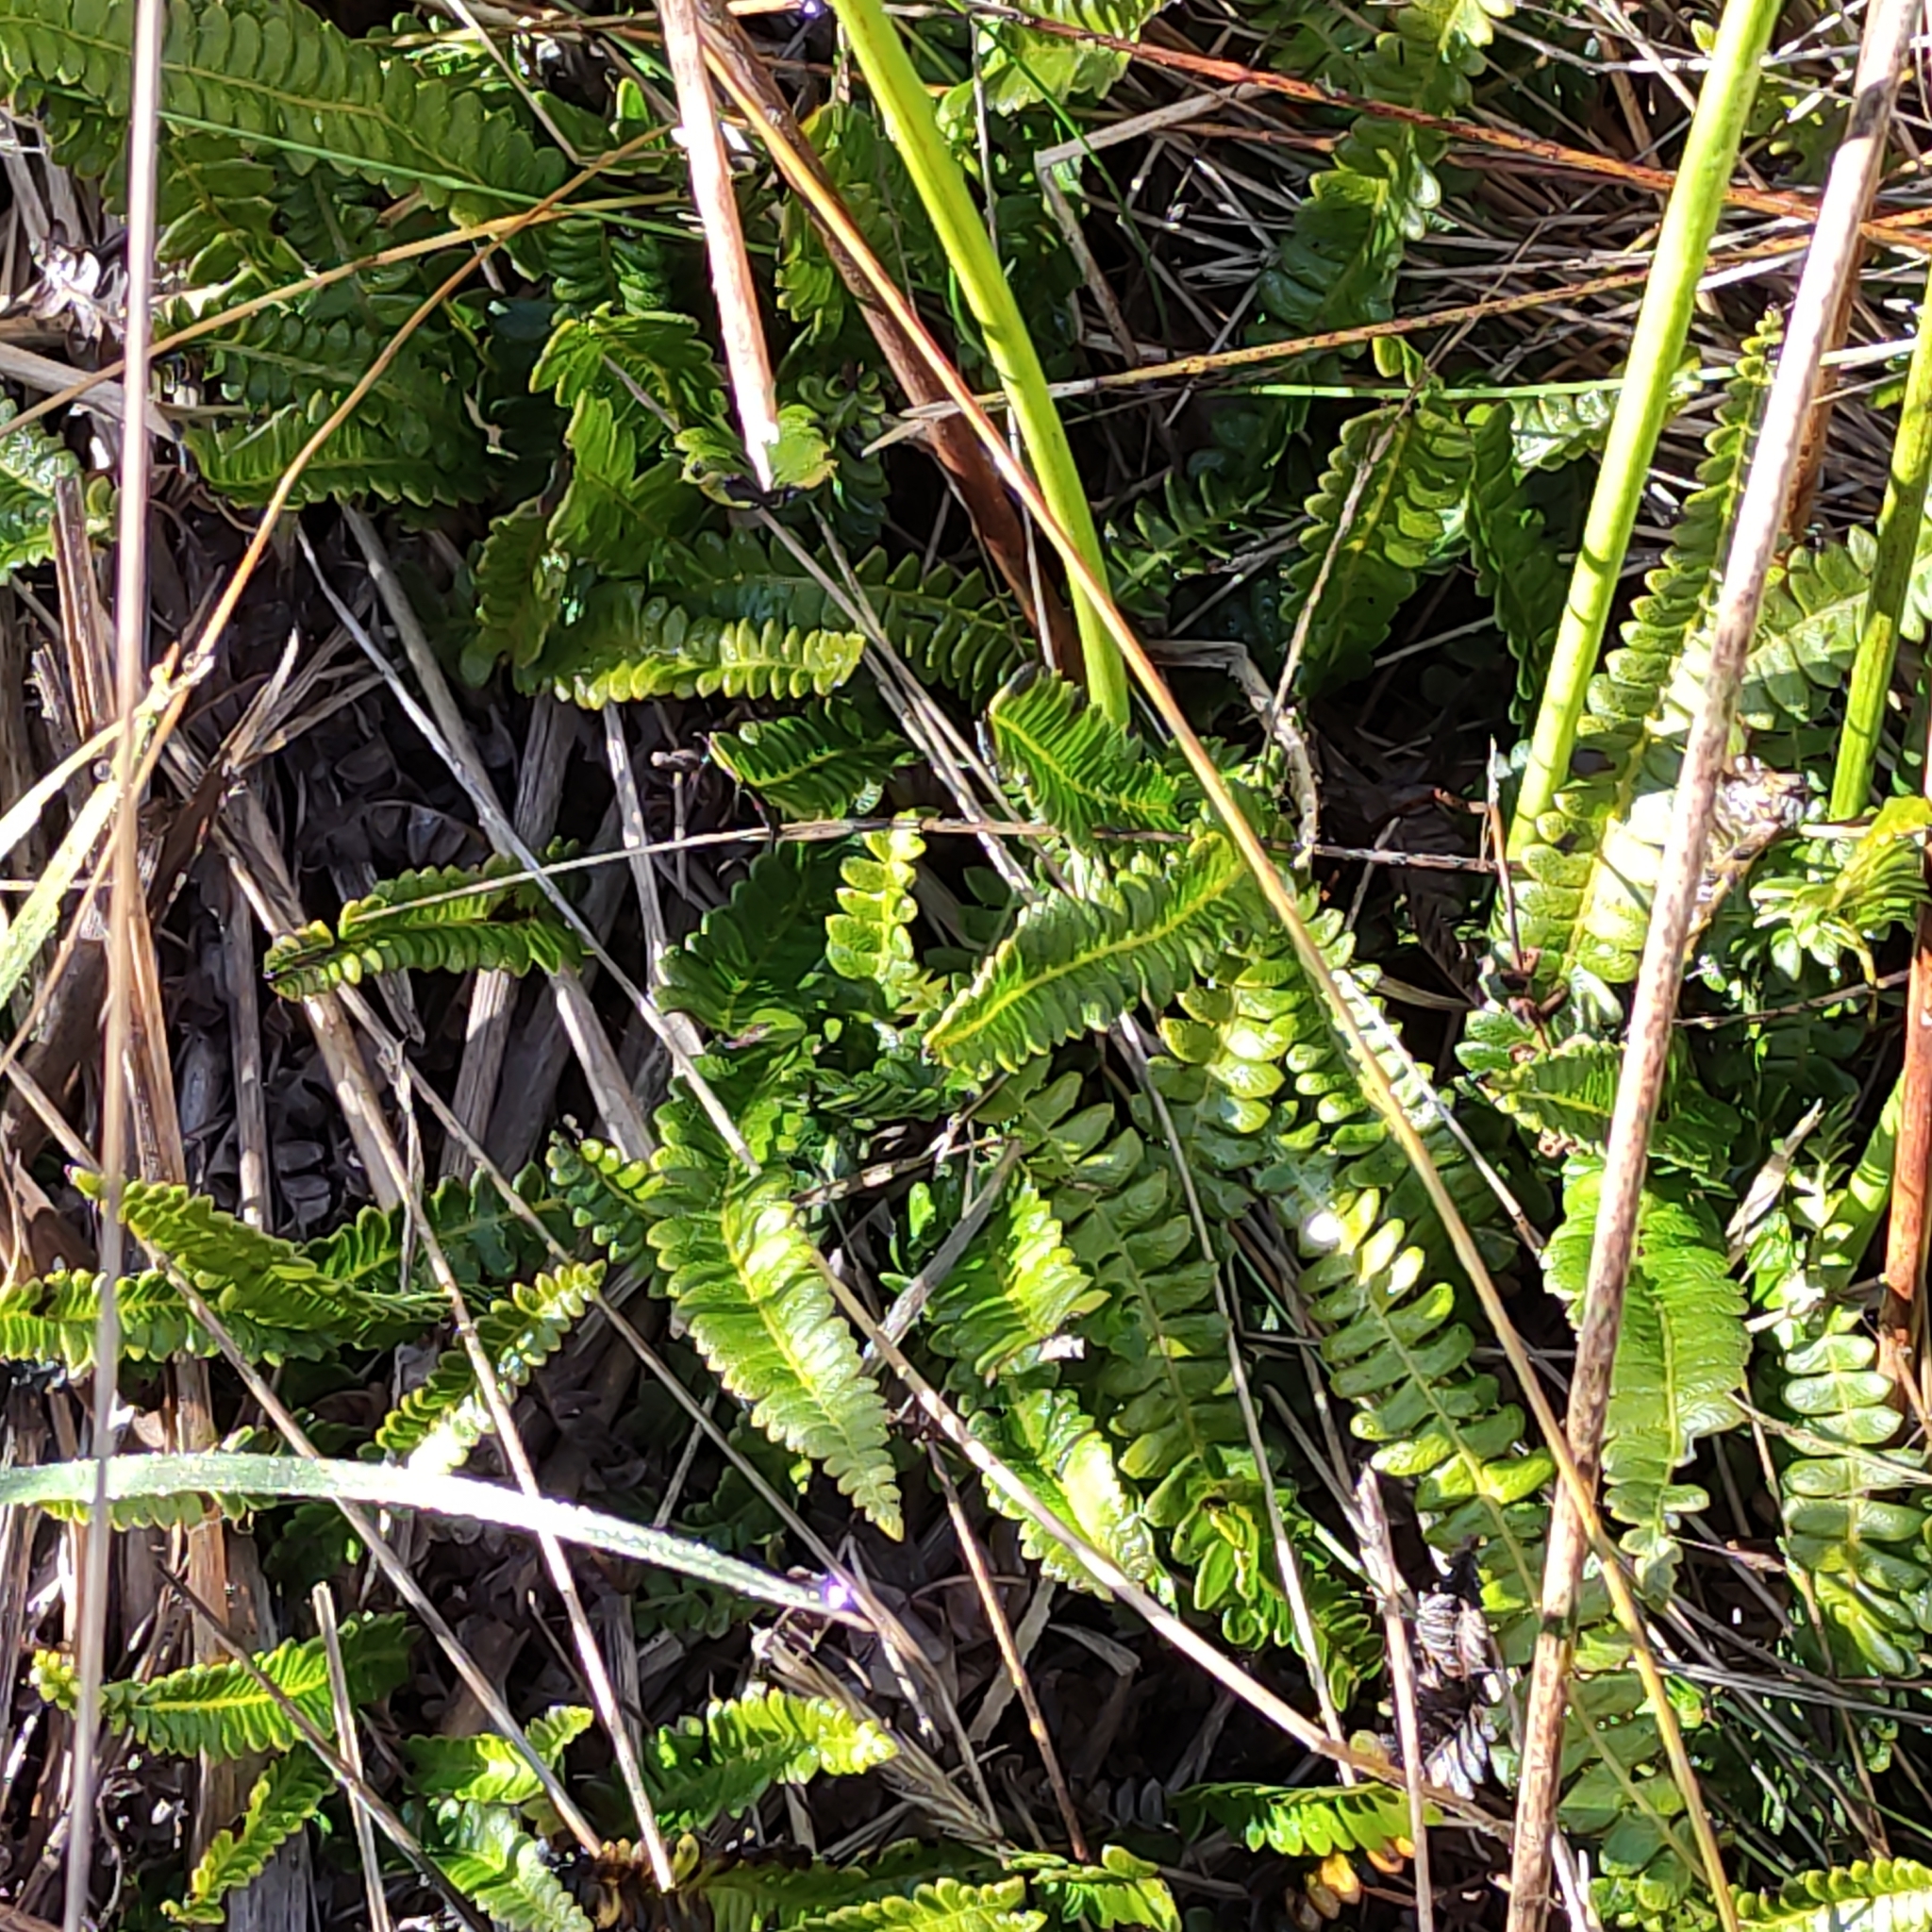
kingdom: Plantae
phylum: Tracheophyta
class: Polypodiopsida
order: Polypodiales
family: Blechnaceae
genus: Austroblechnum
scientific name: Austroblechnum penna-marina
